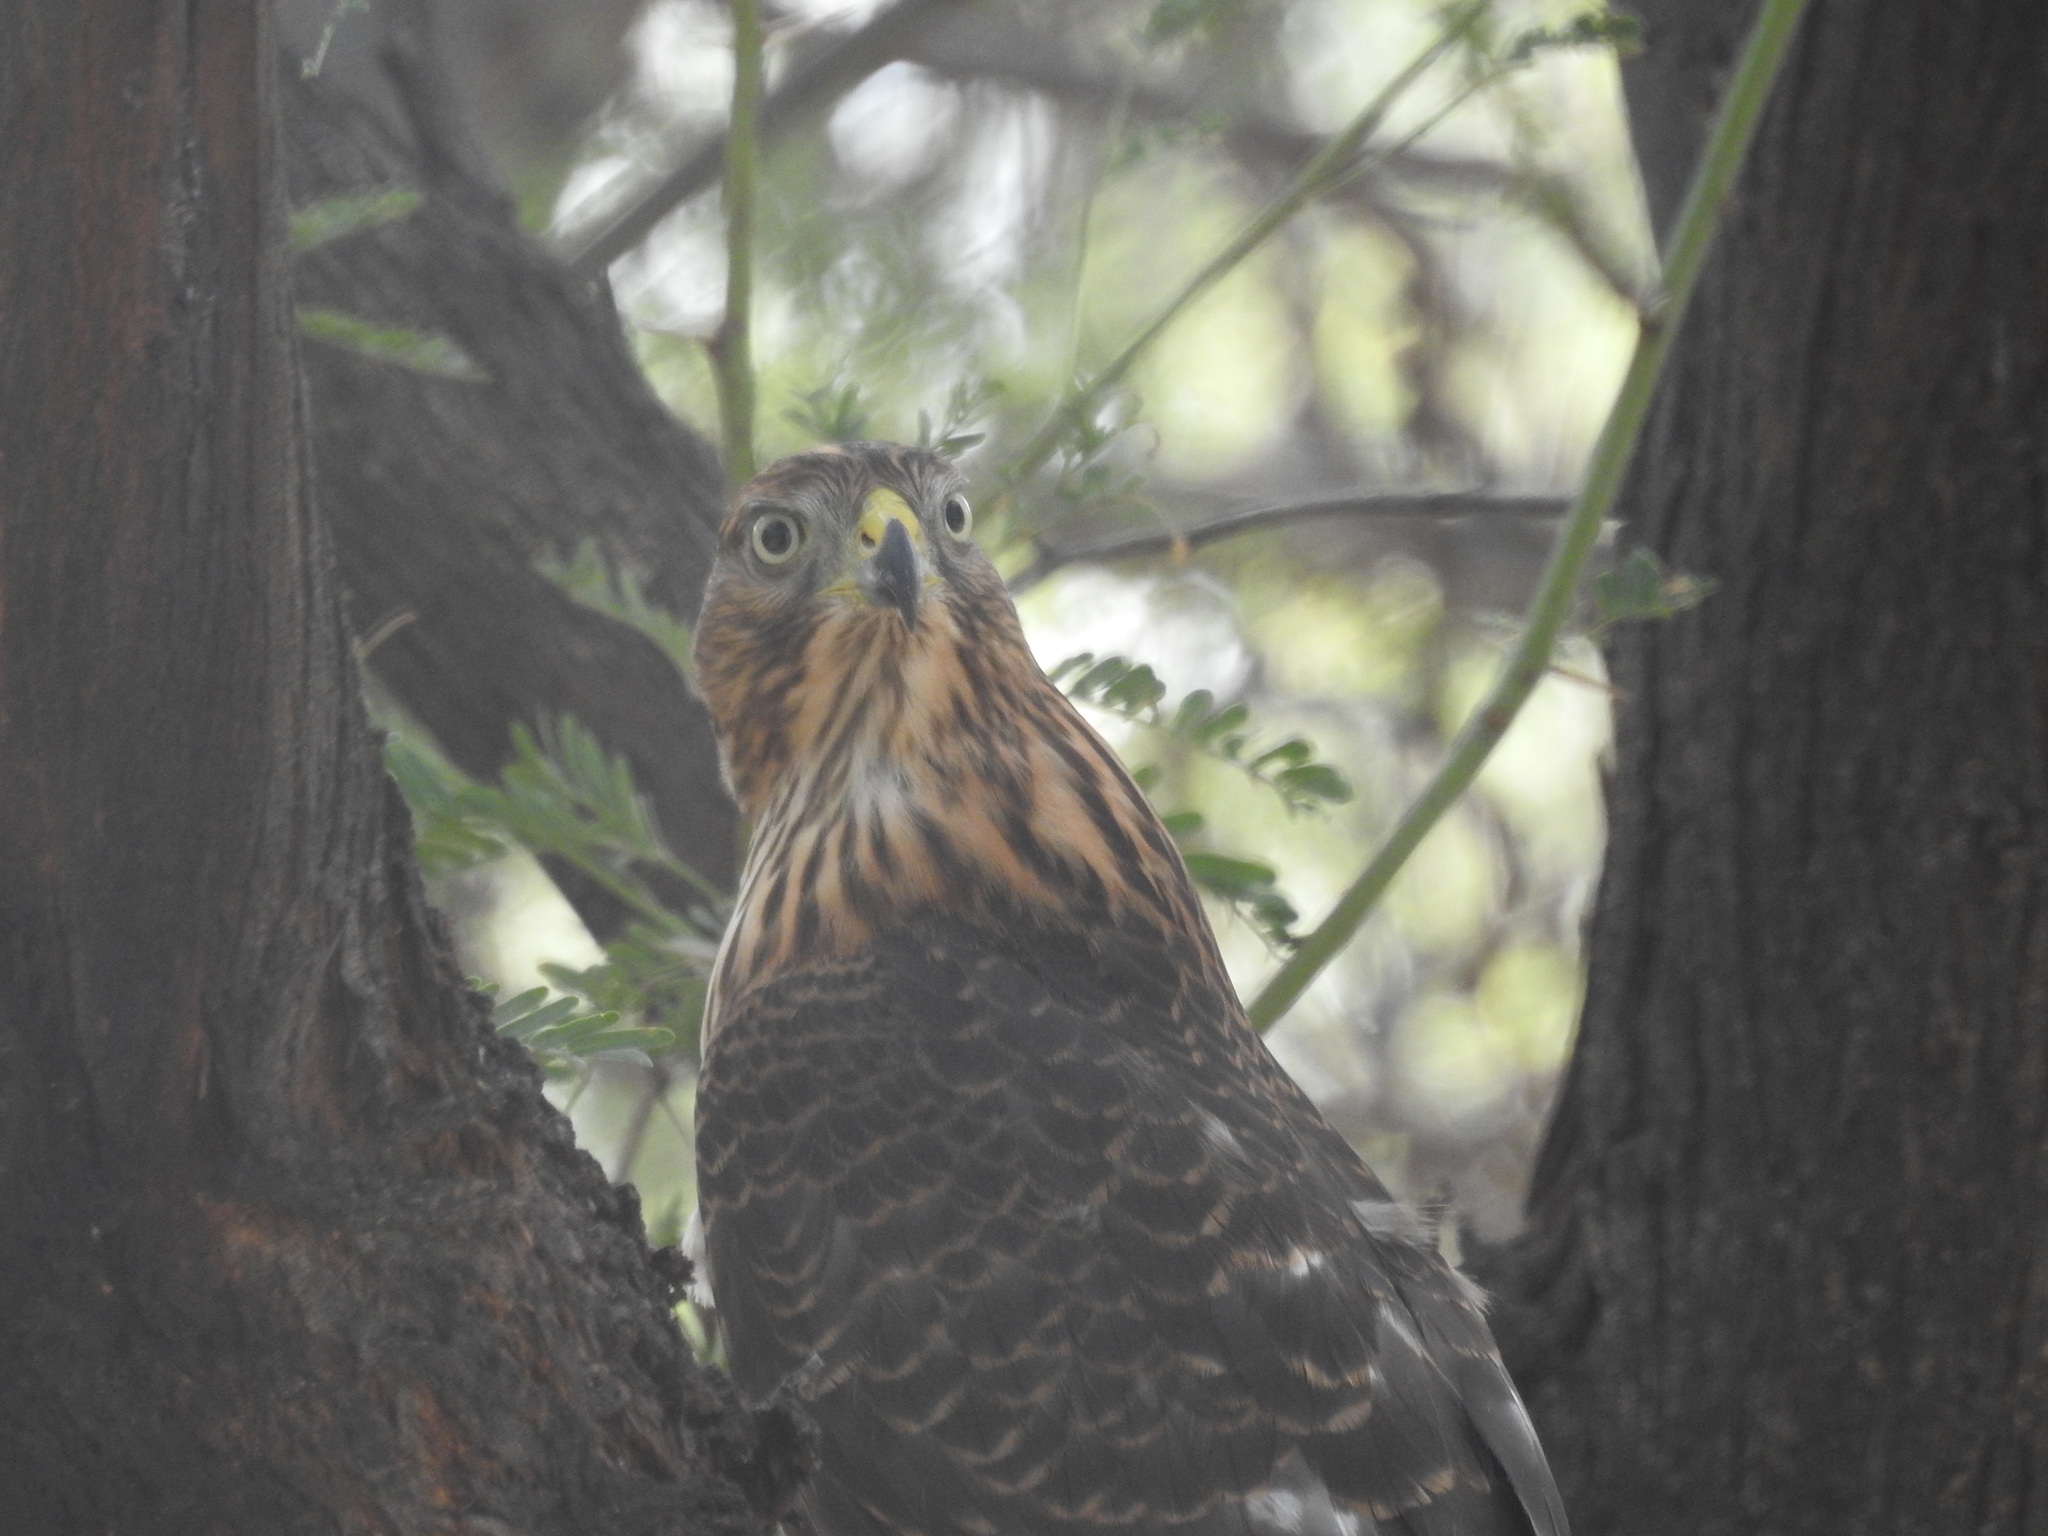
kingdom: Animalia
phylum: Chordata
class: Aves
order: Accipitriformes
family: Accipitridae
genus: Accipiter
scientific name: Accipiter cooperii
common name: Cooper's hawk
